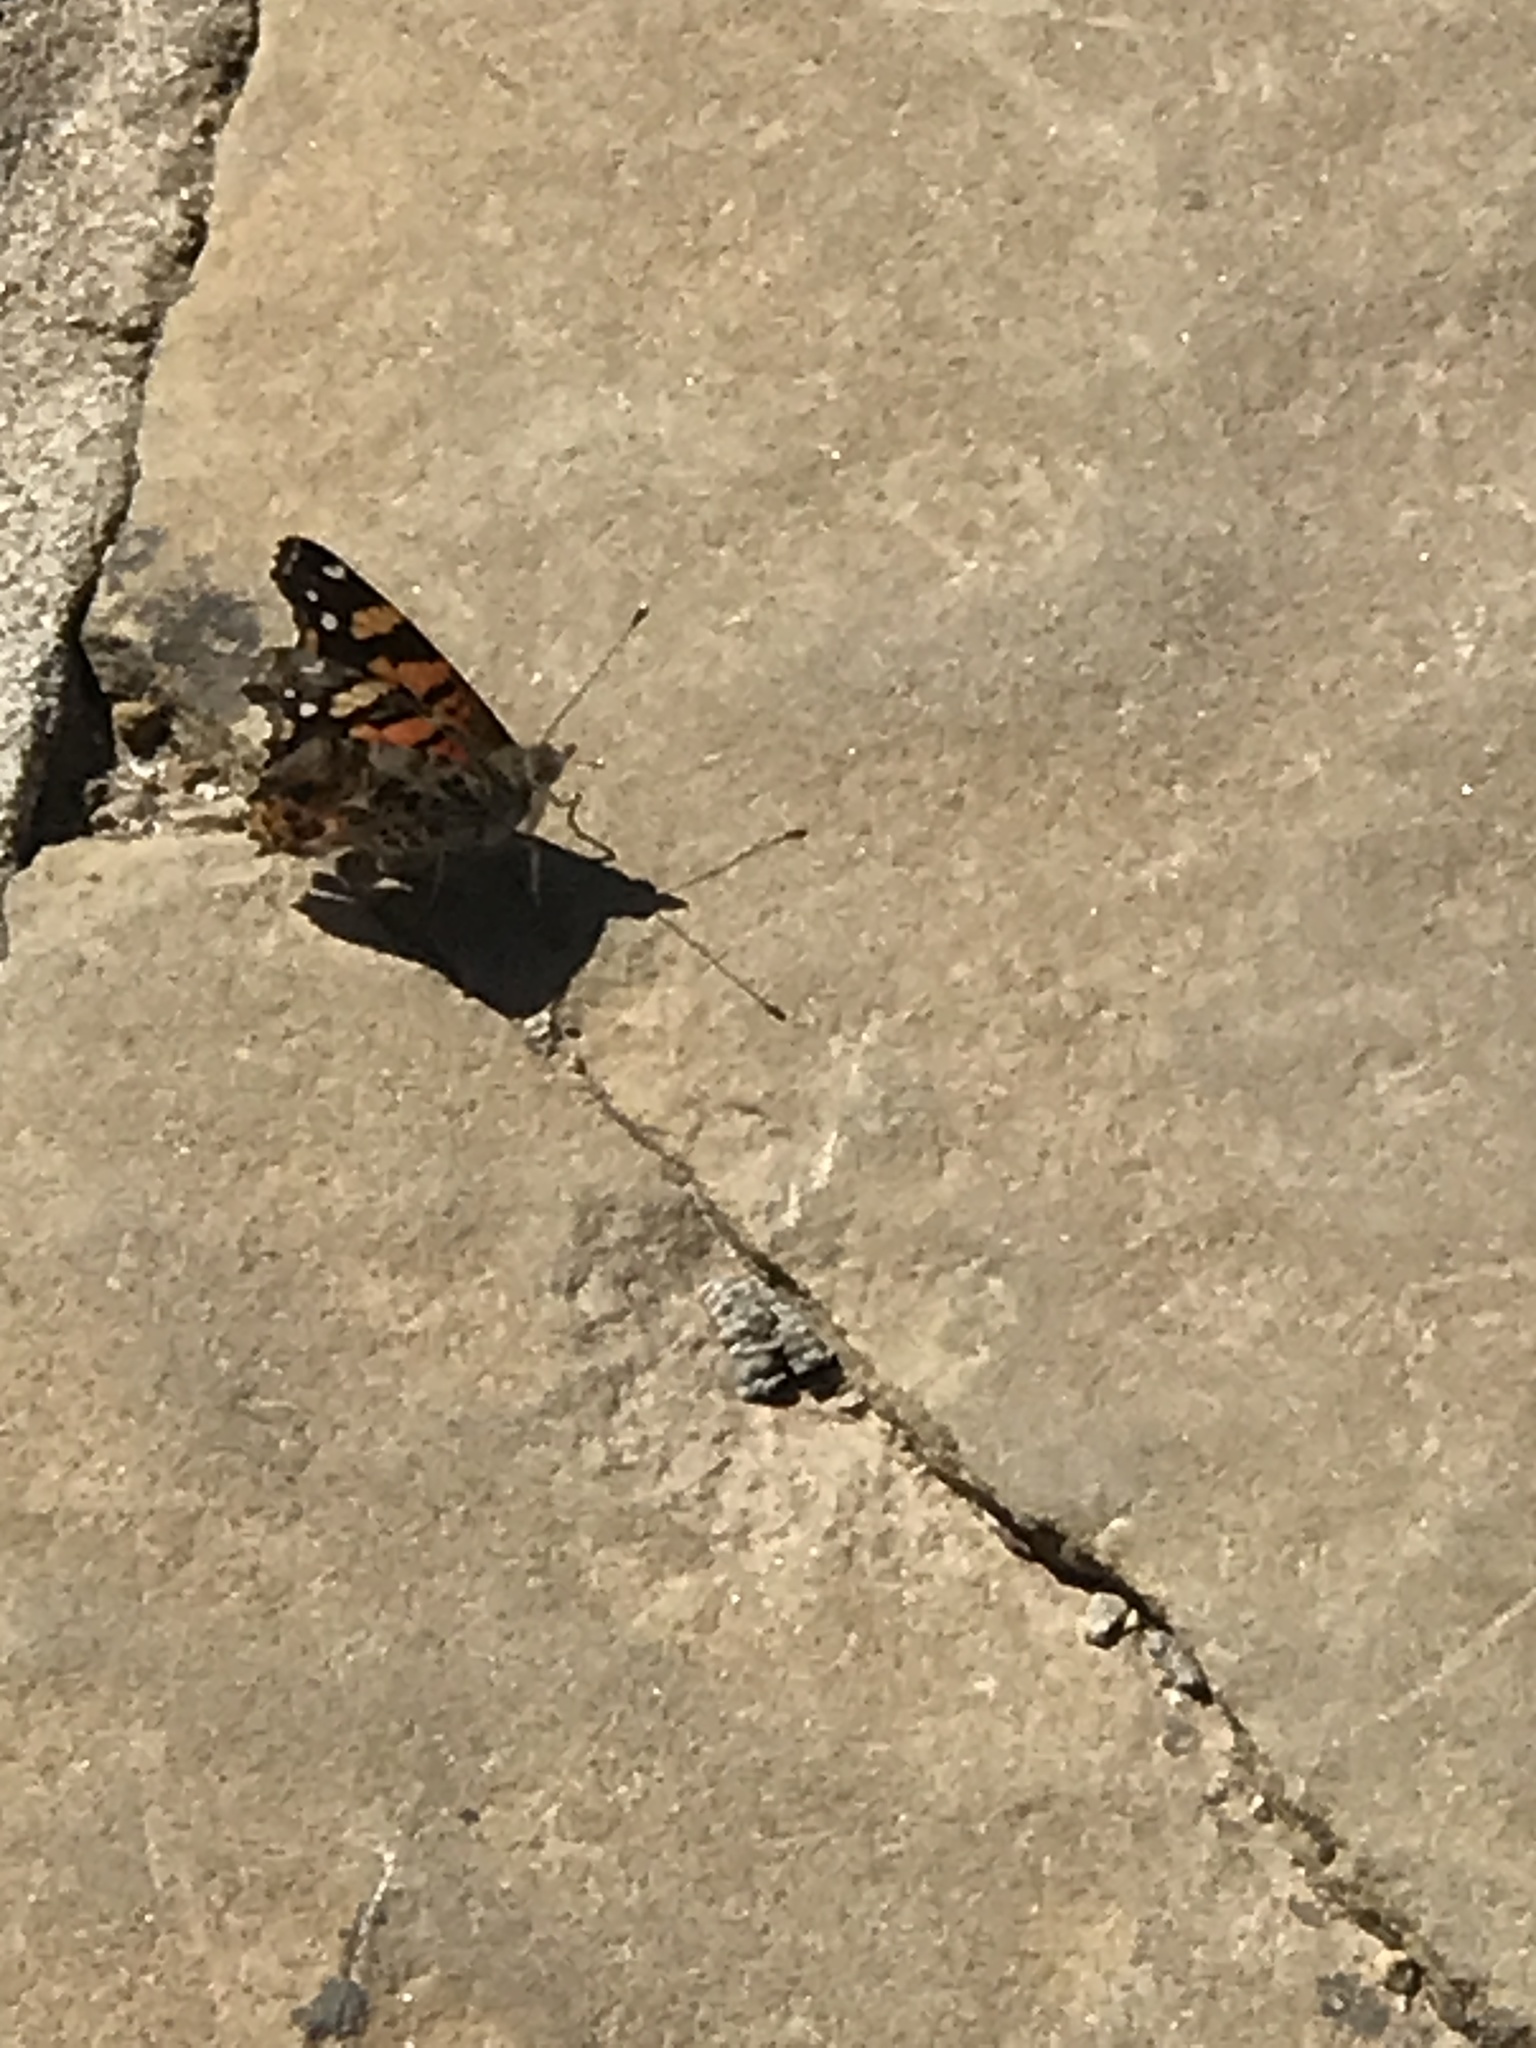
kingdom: Animalia
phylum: Arthropoda
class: Insecta
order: Lepidoptera
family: Nymphalidae
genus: Vanessa
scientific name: Vanessa annabella
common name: West coast lady
